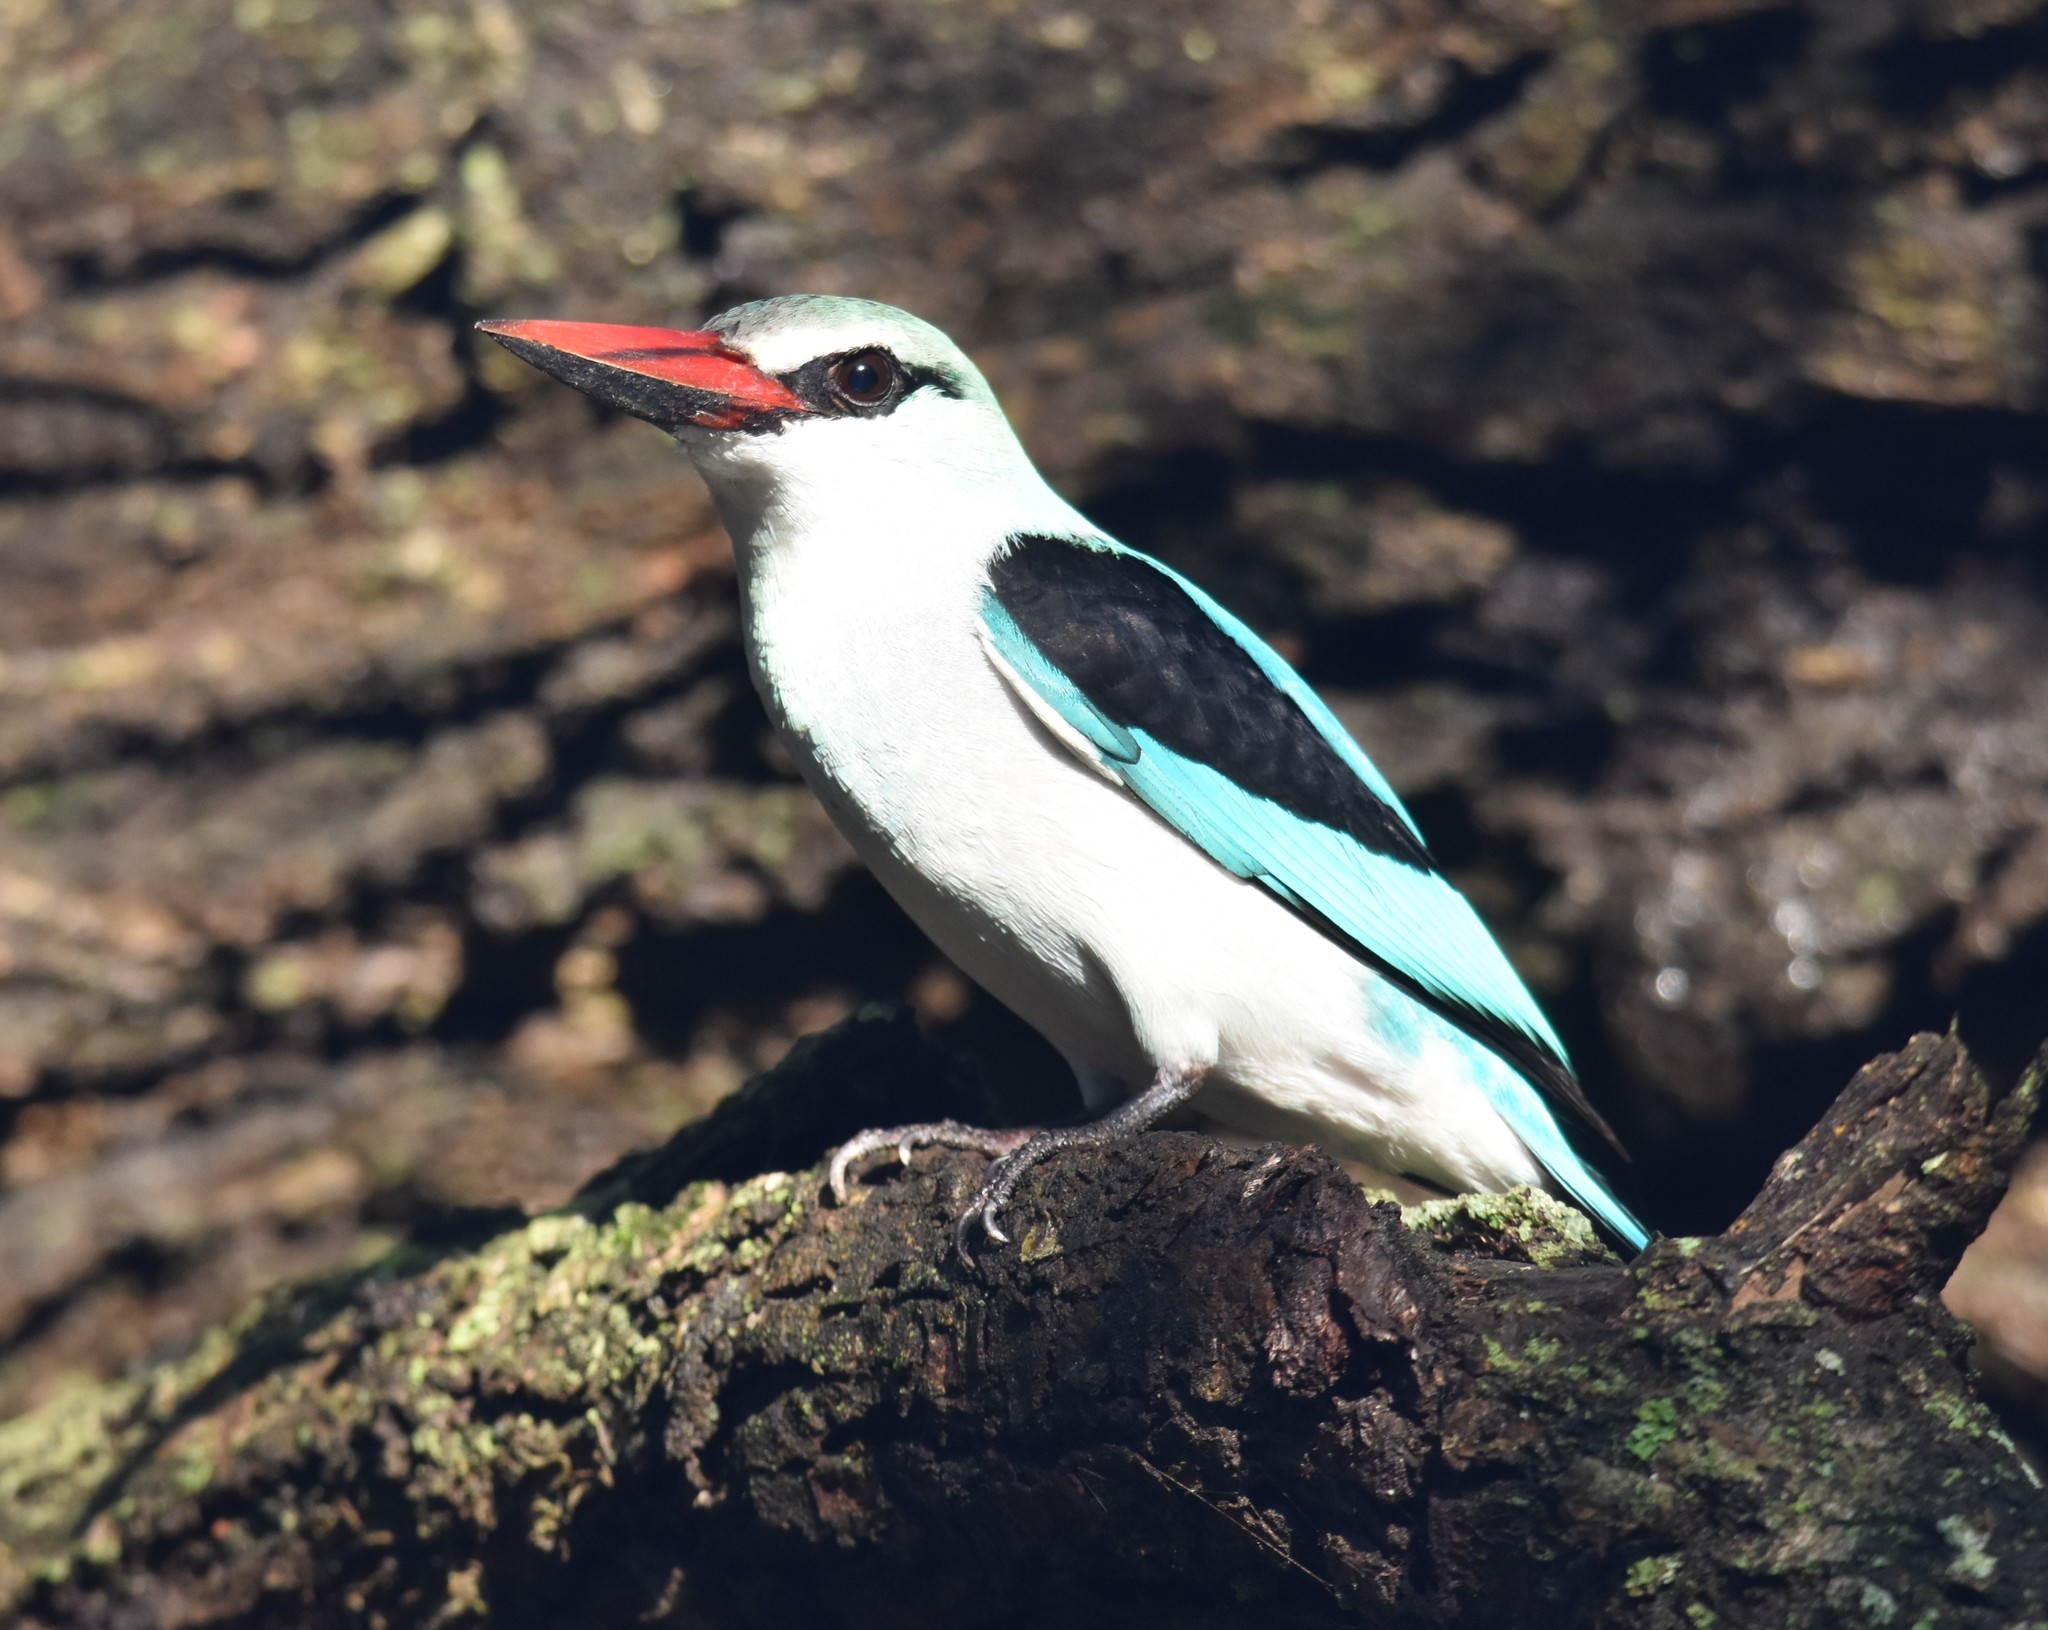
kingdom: Animalia
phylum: Chordata
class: Aves
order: Coraciiformes
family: Alcedinidae
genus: Halcyon
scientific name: Halcyon senegalensis
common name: Woodland kingfisher
